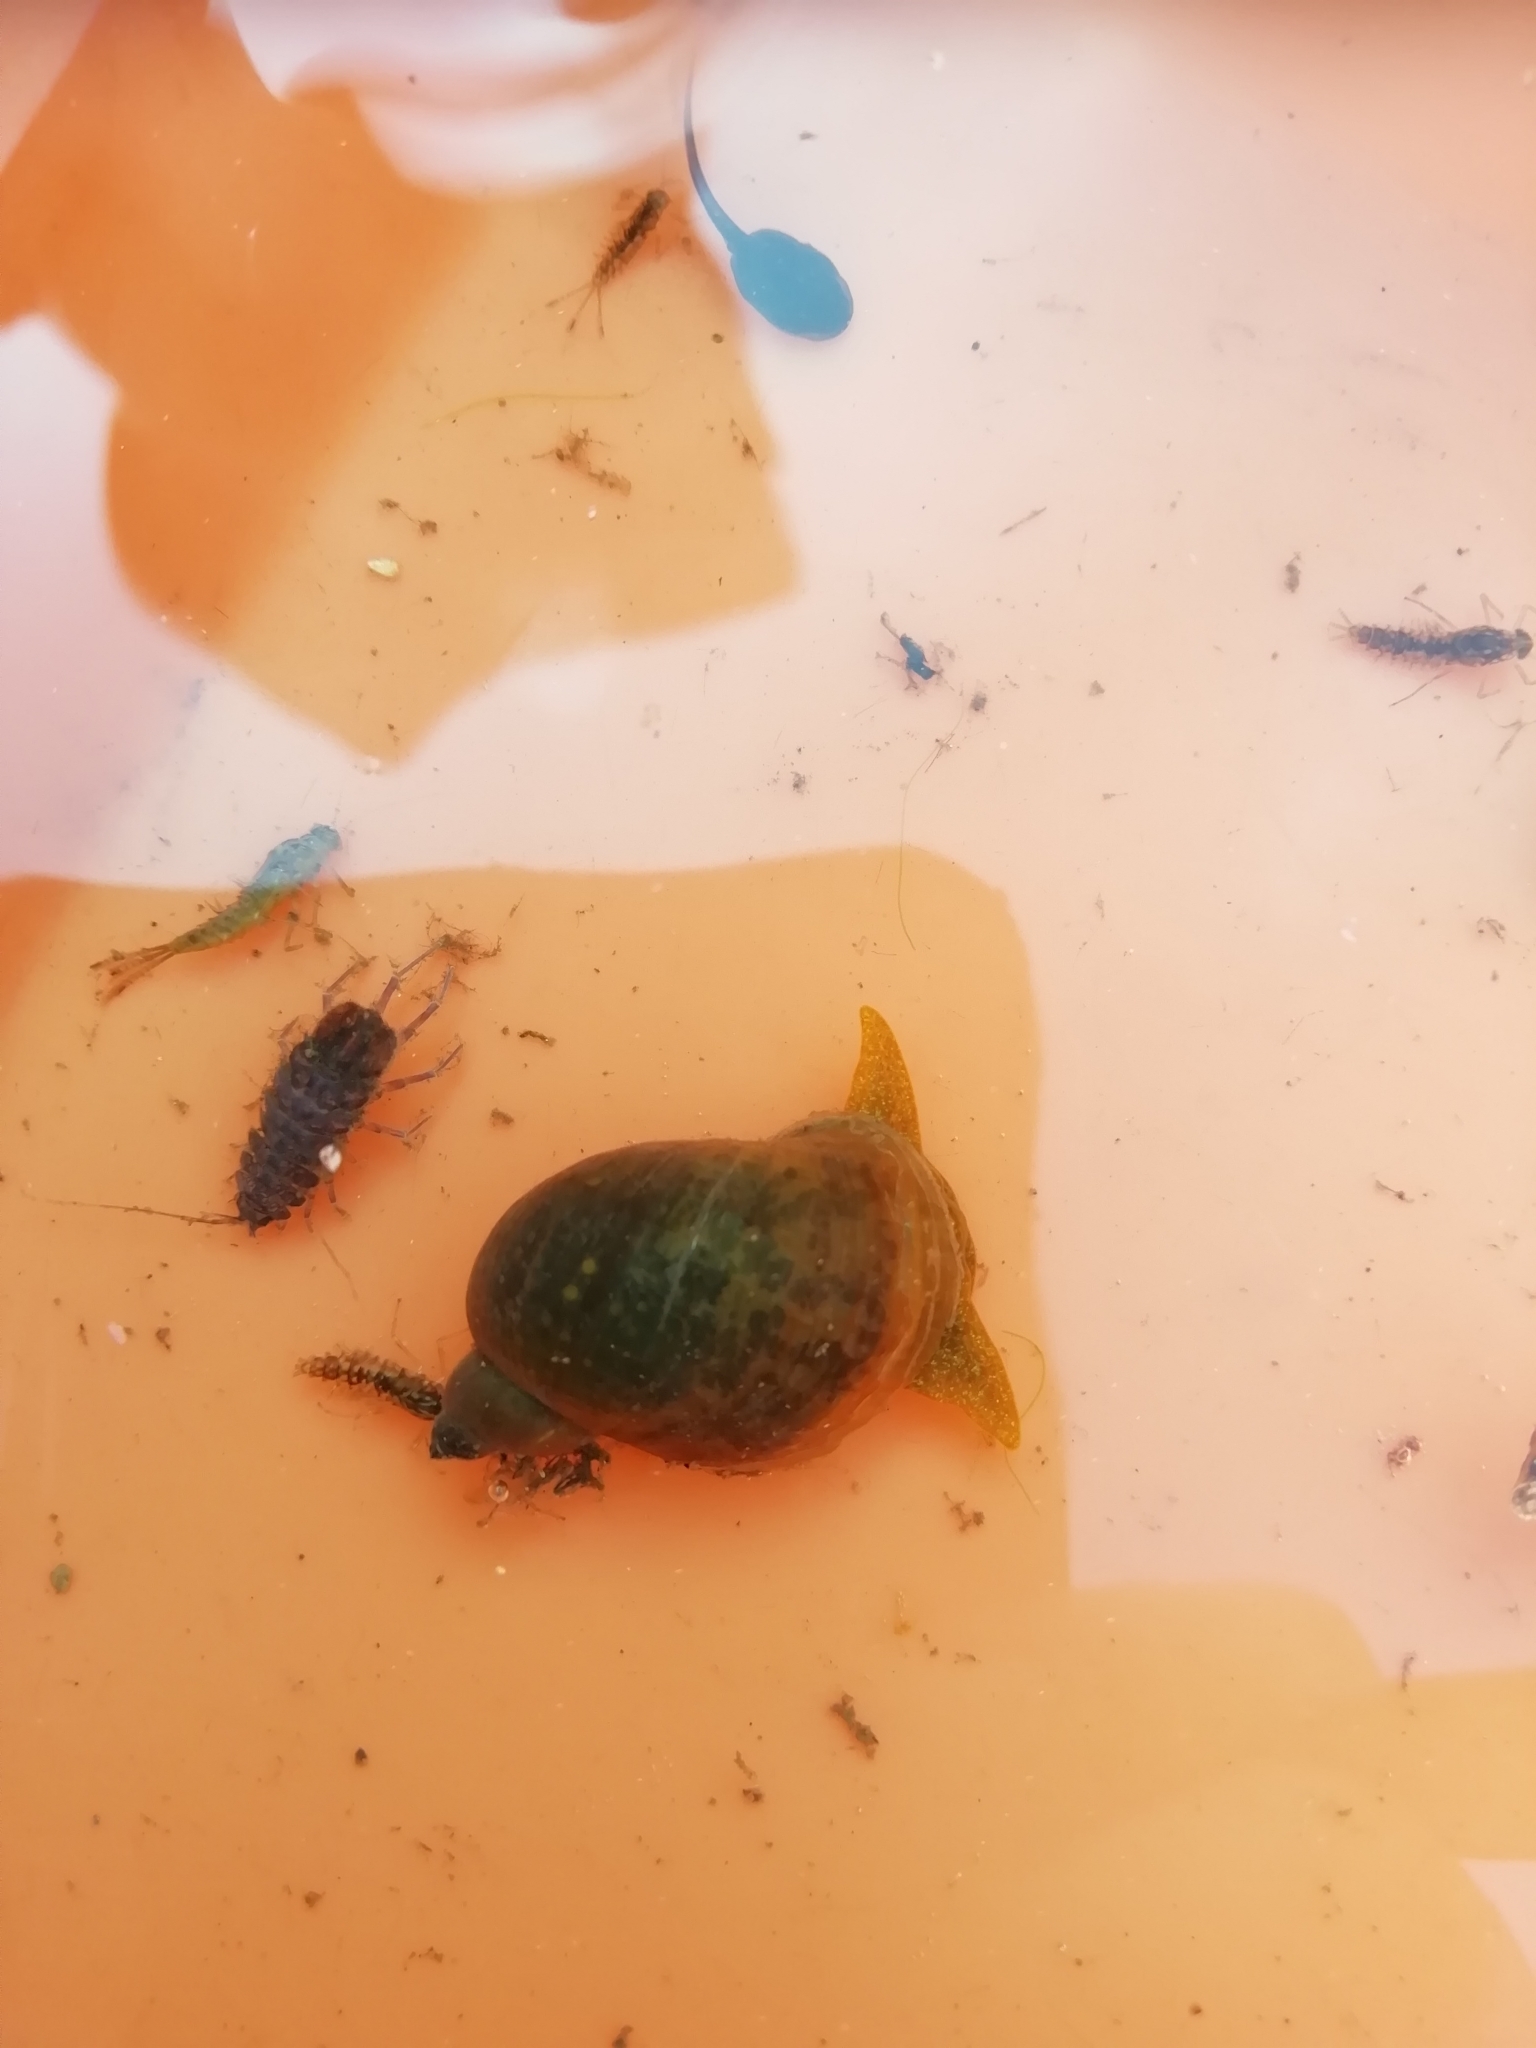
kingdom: Animalia
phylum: Mollusca
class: Gastropoda
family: Lymnaeidae
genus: Radix
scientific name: Radix auricularia
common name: Ear pond snail
